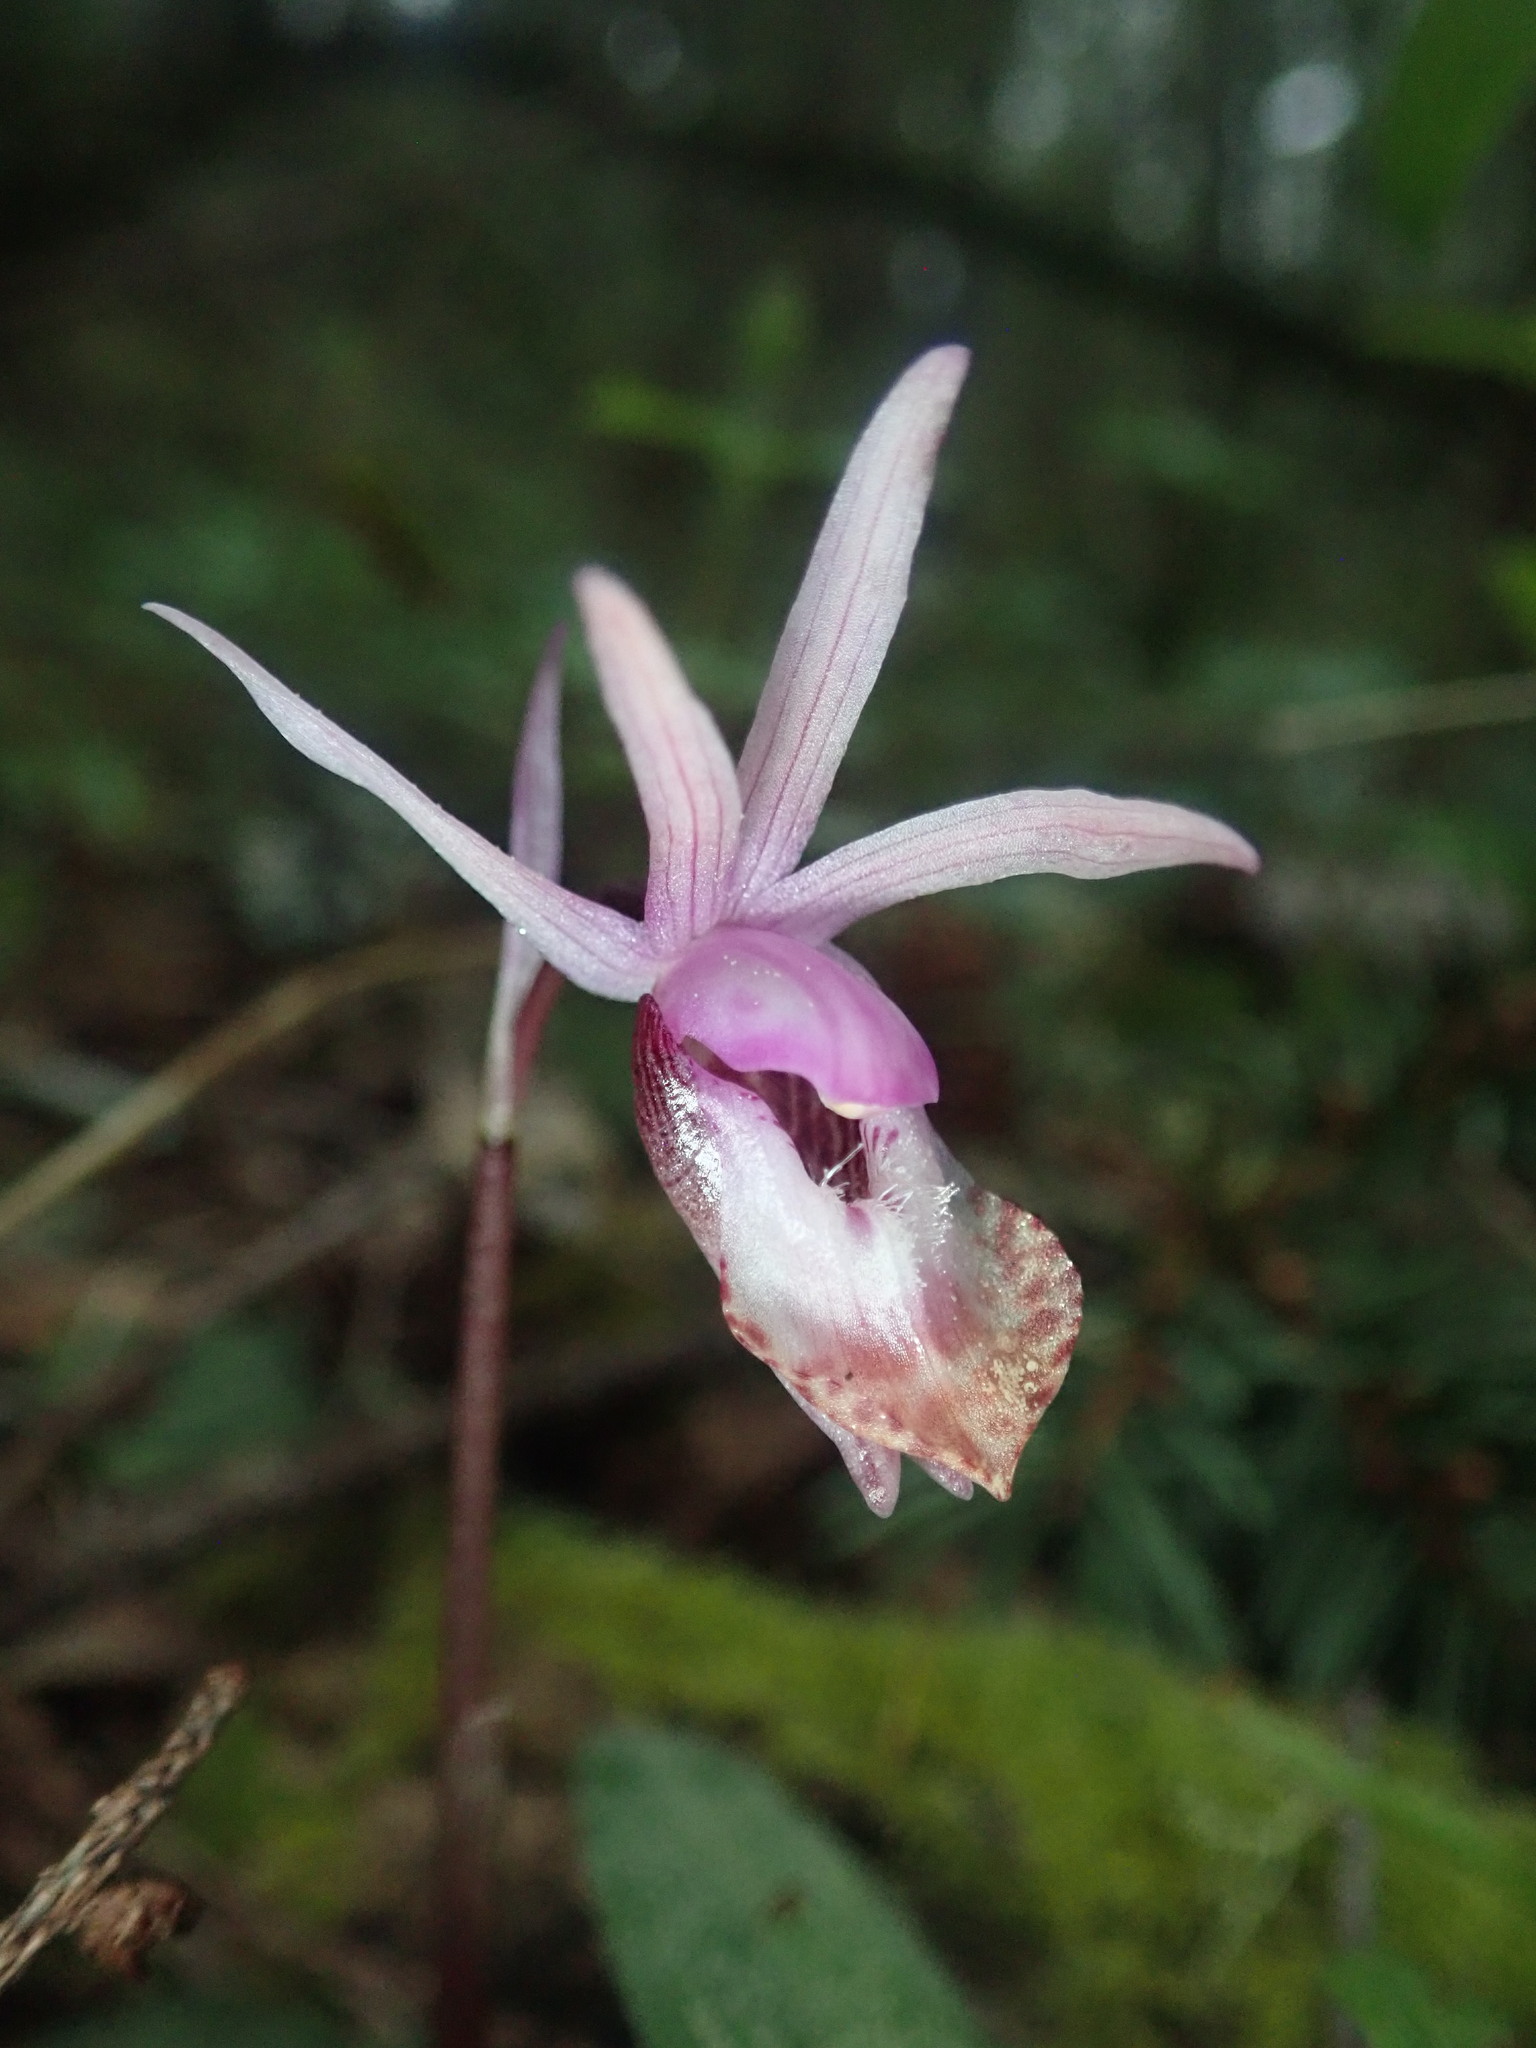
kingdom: Plantae
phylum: Tracheophyta
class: Liliopsida
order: Asparagales
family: Orchidaceae
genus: Calypso
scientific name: Calypso bulbosa
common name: Calypso
